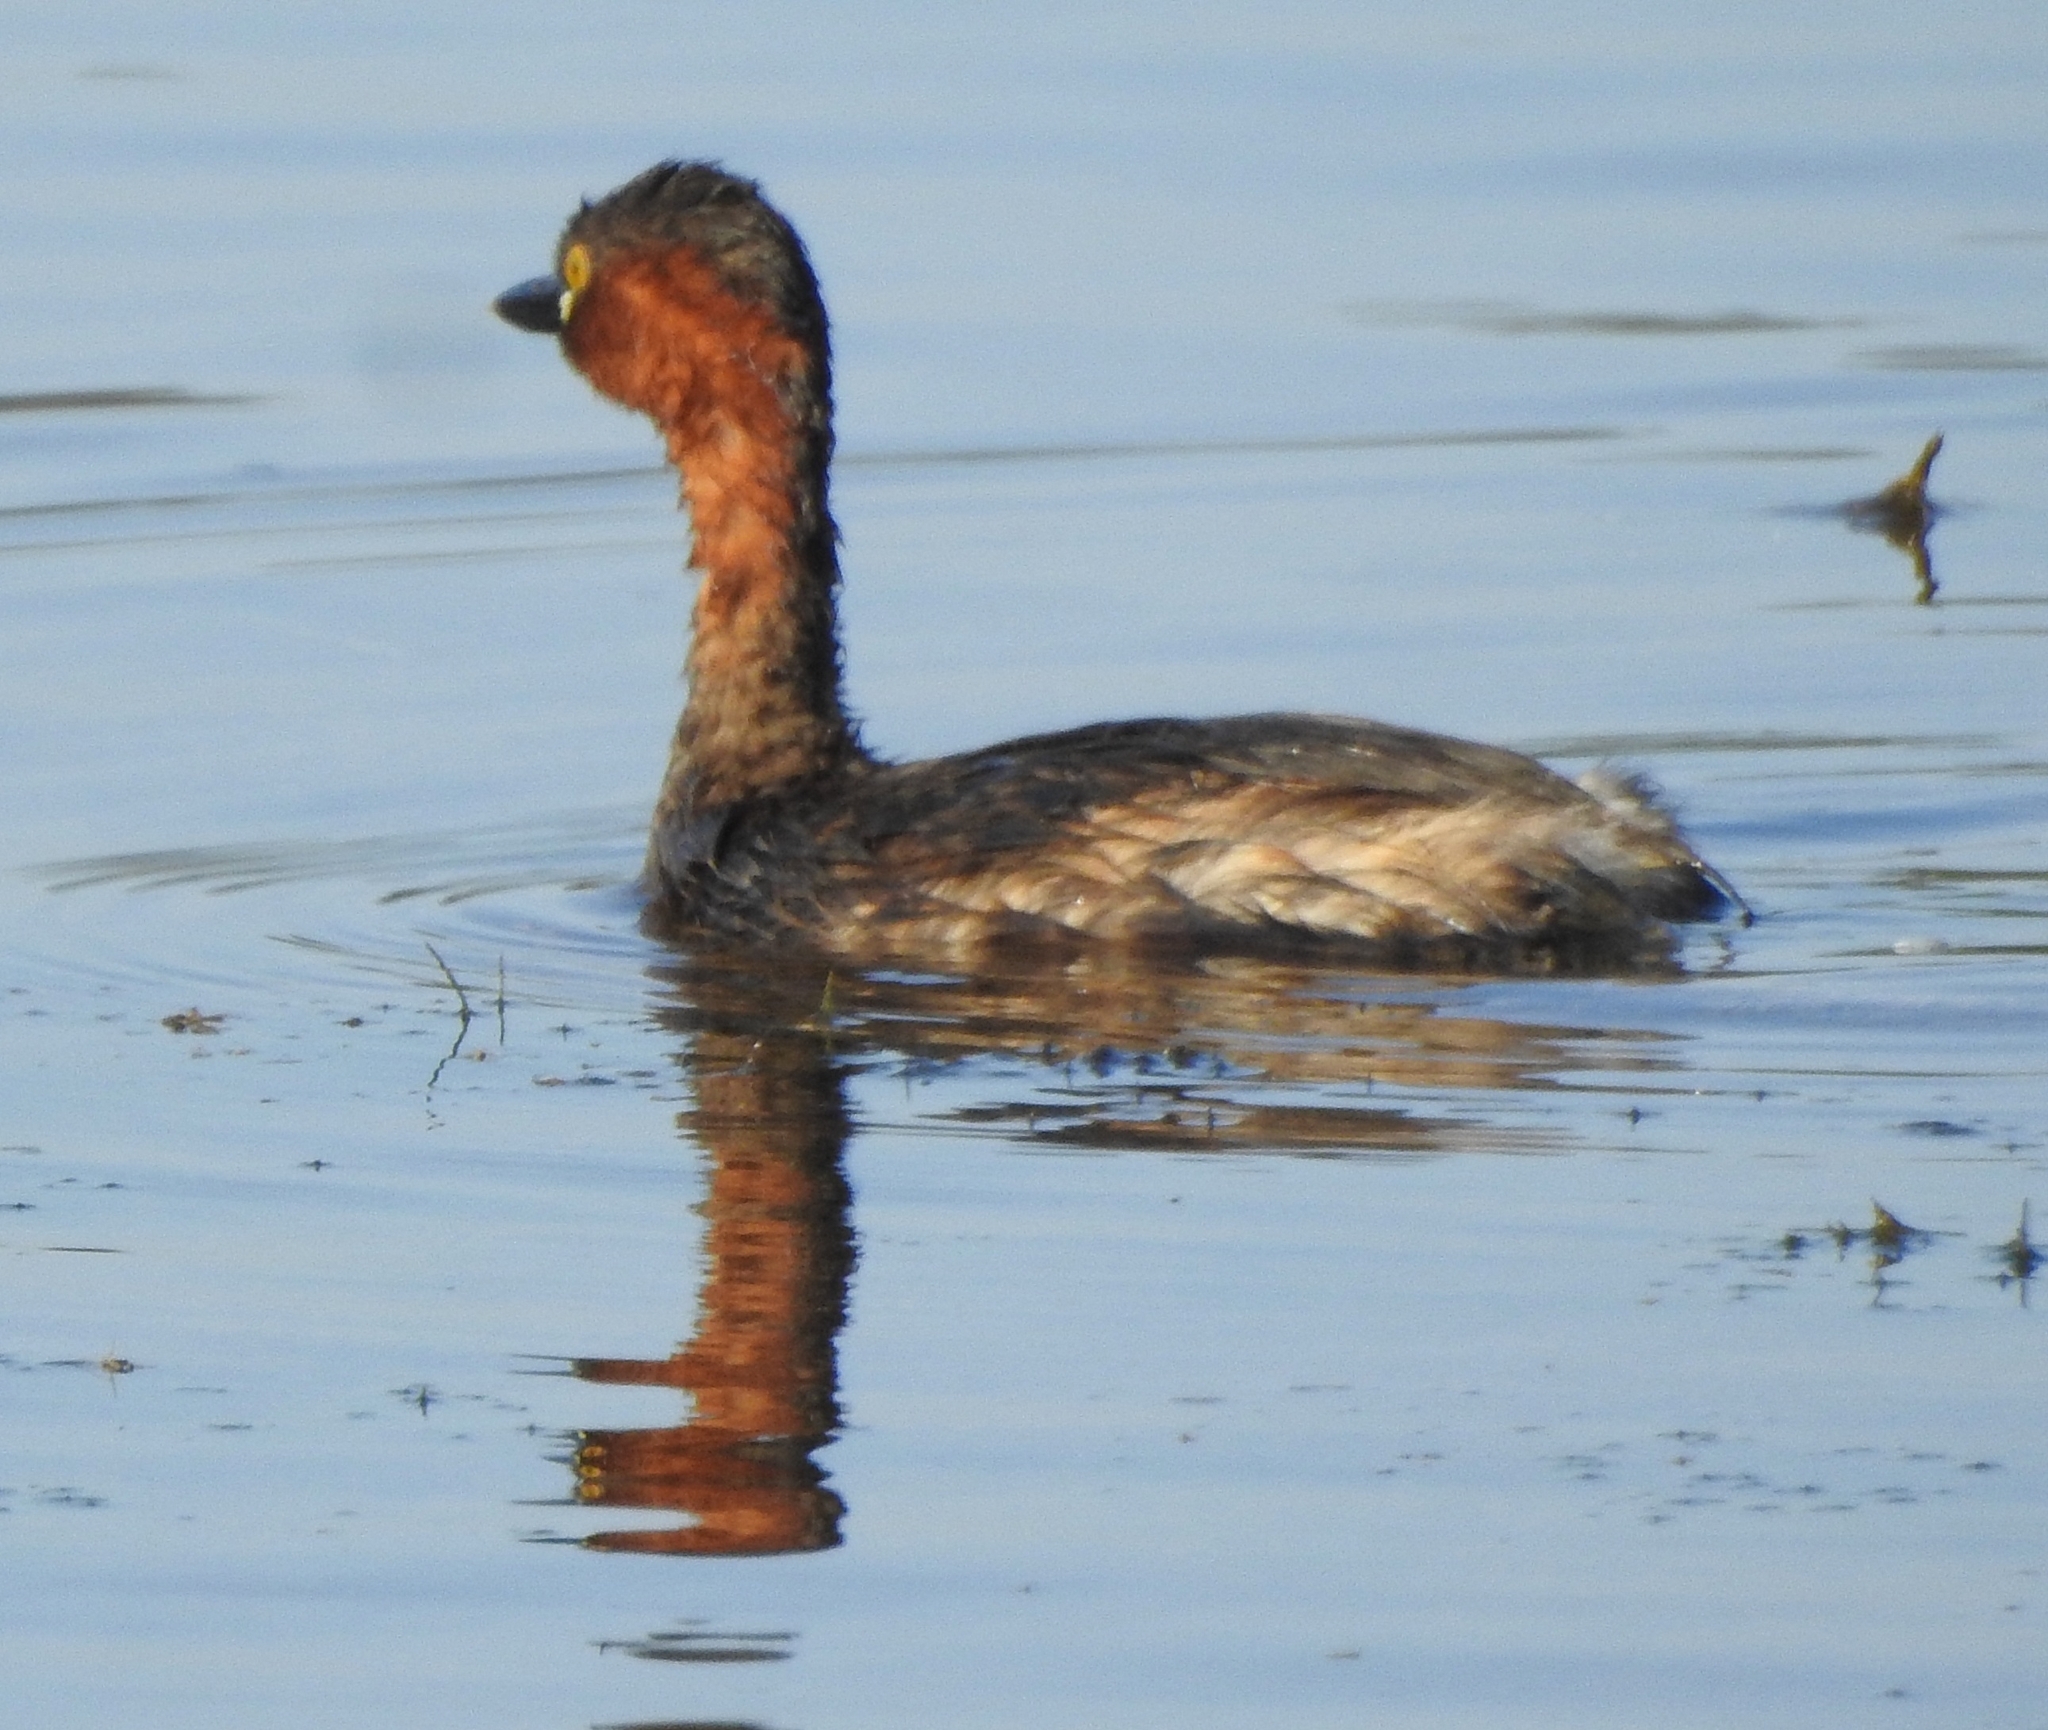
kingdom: Animalia
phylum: Chordata
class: Aves
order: Podicipediformes
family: Podicipedidae
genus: Tachybaptus
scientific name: Tachybaptus ruficollis
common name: Little grebe
